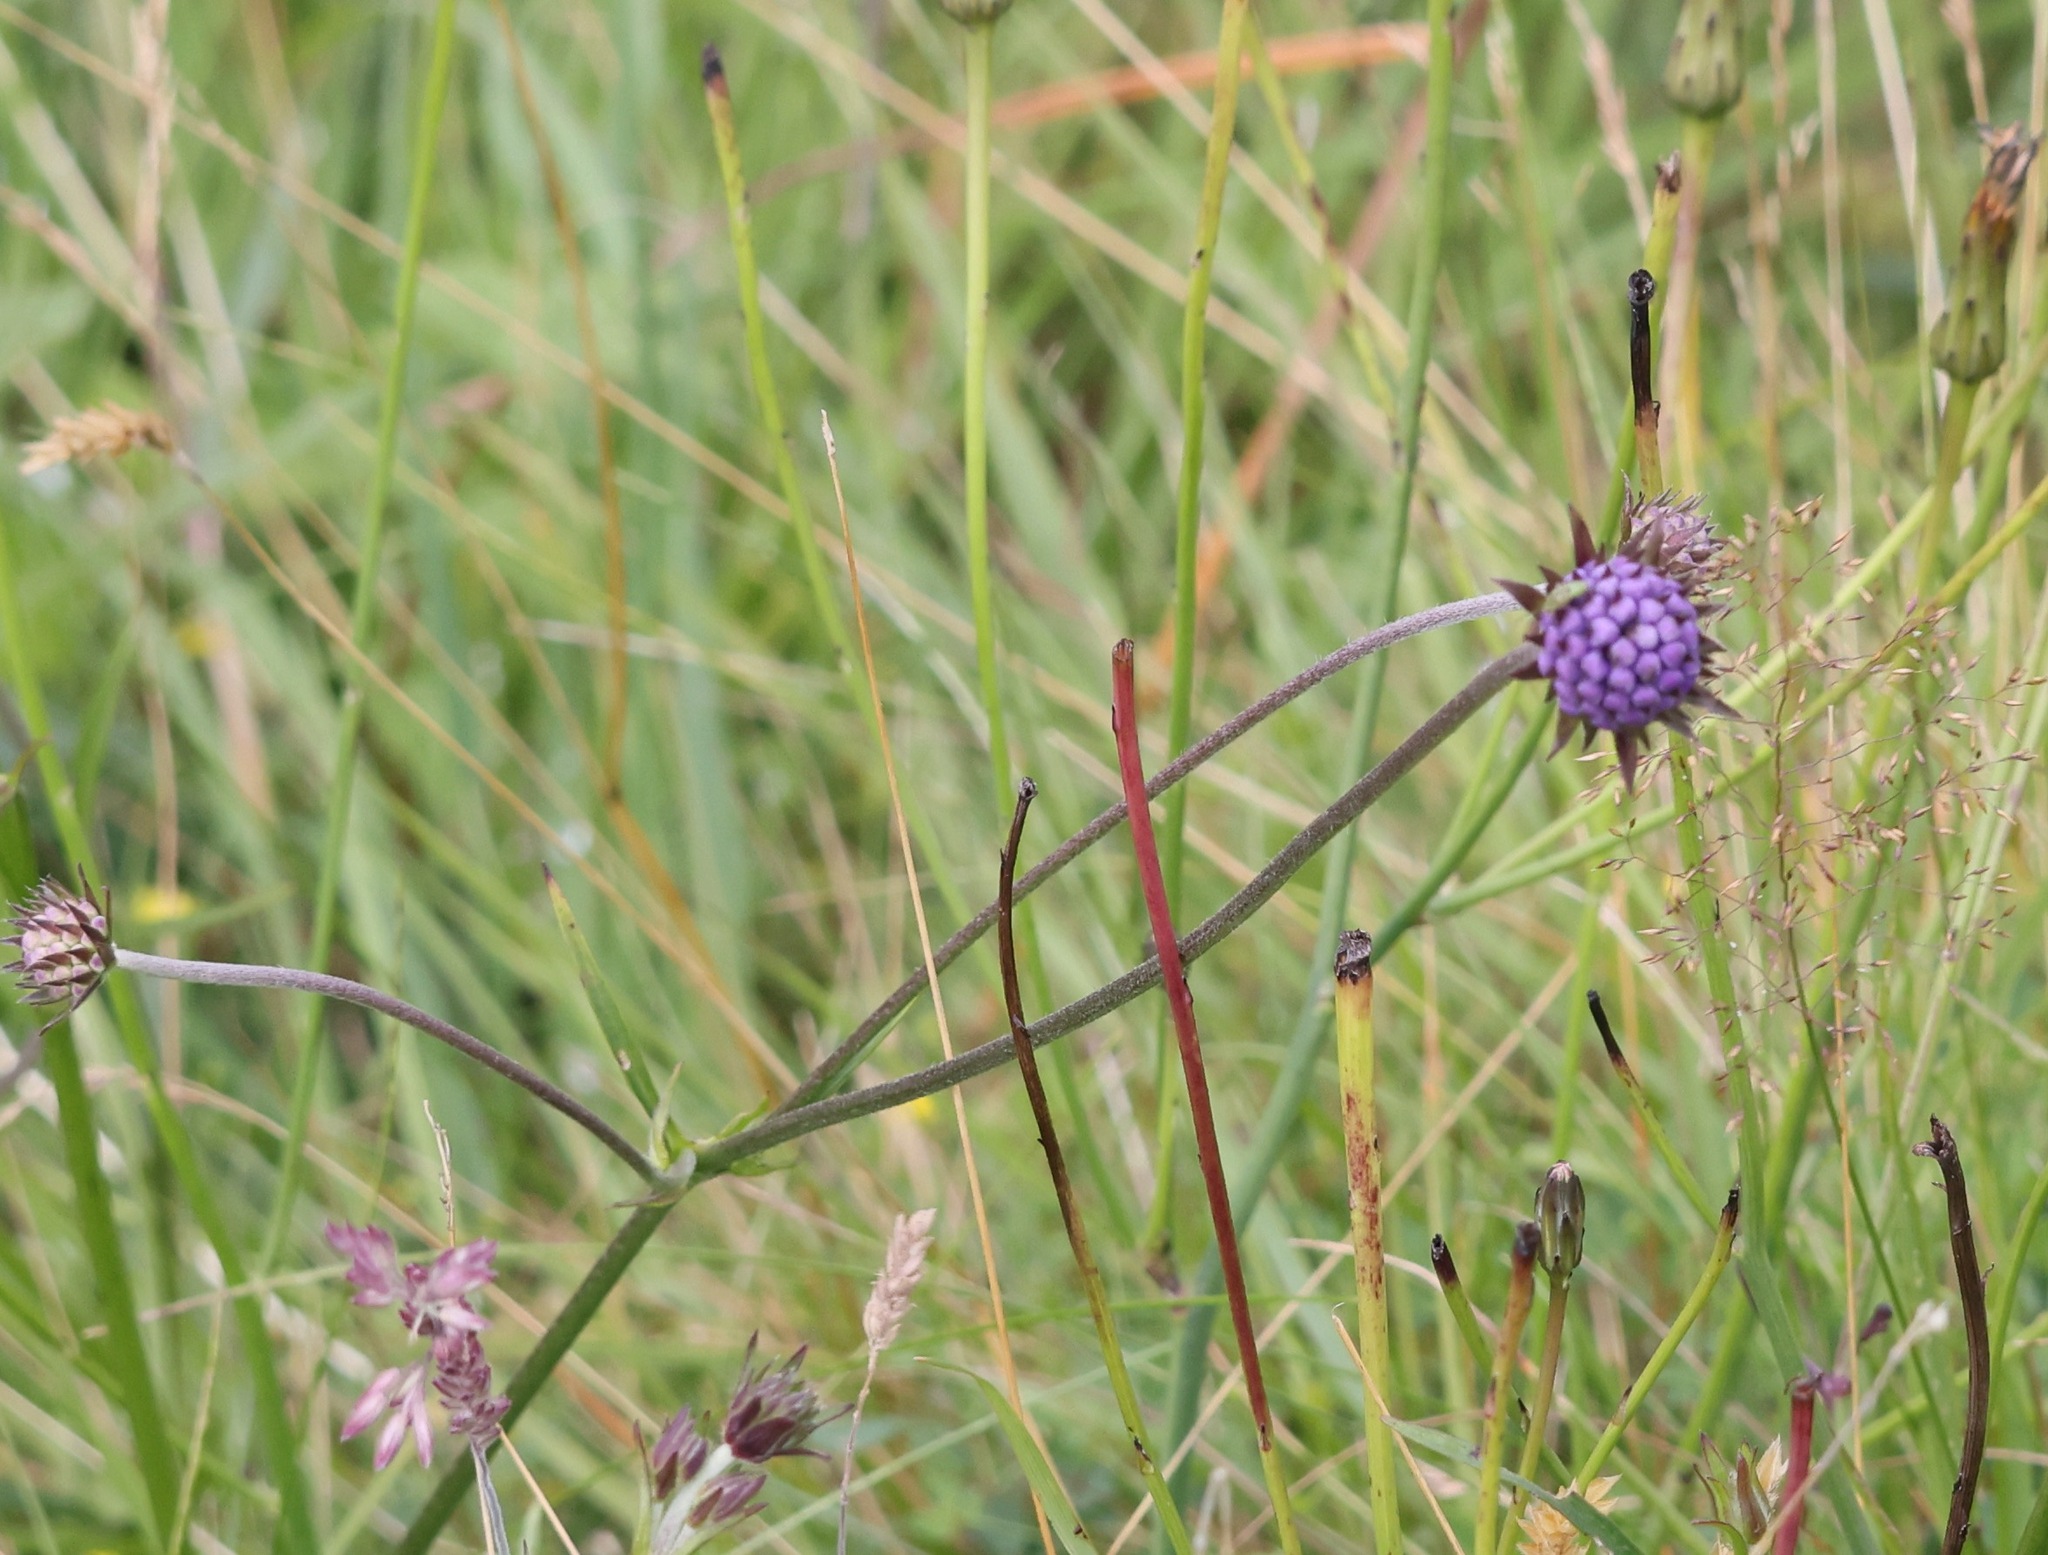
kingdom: Plantae
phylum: Tracheophyta
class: Magnoliopsida
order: Dipsacales
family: Caprifoliaceae
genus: Succisa
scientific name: Succisa pratensis
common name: Devil's-bit
